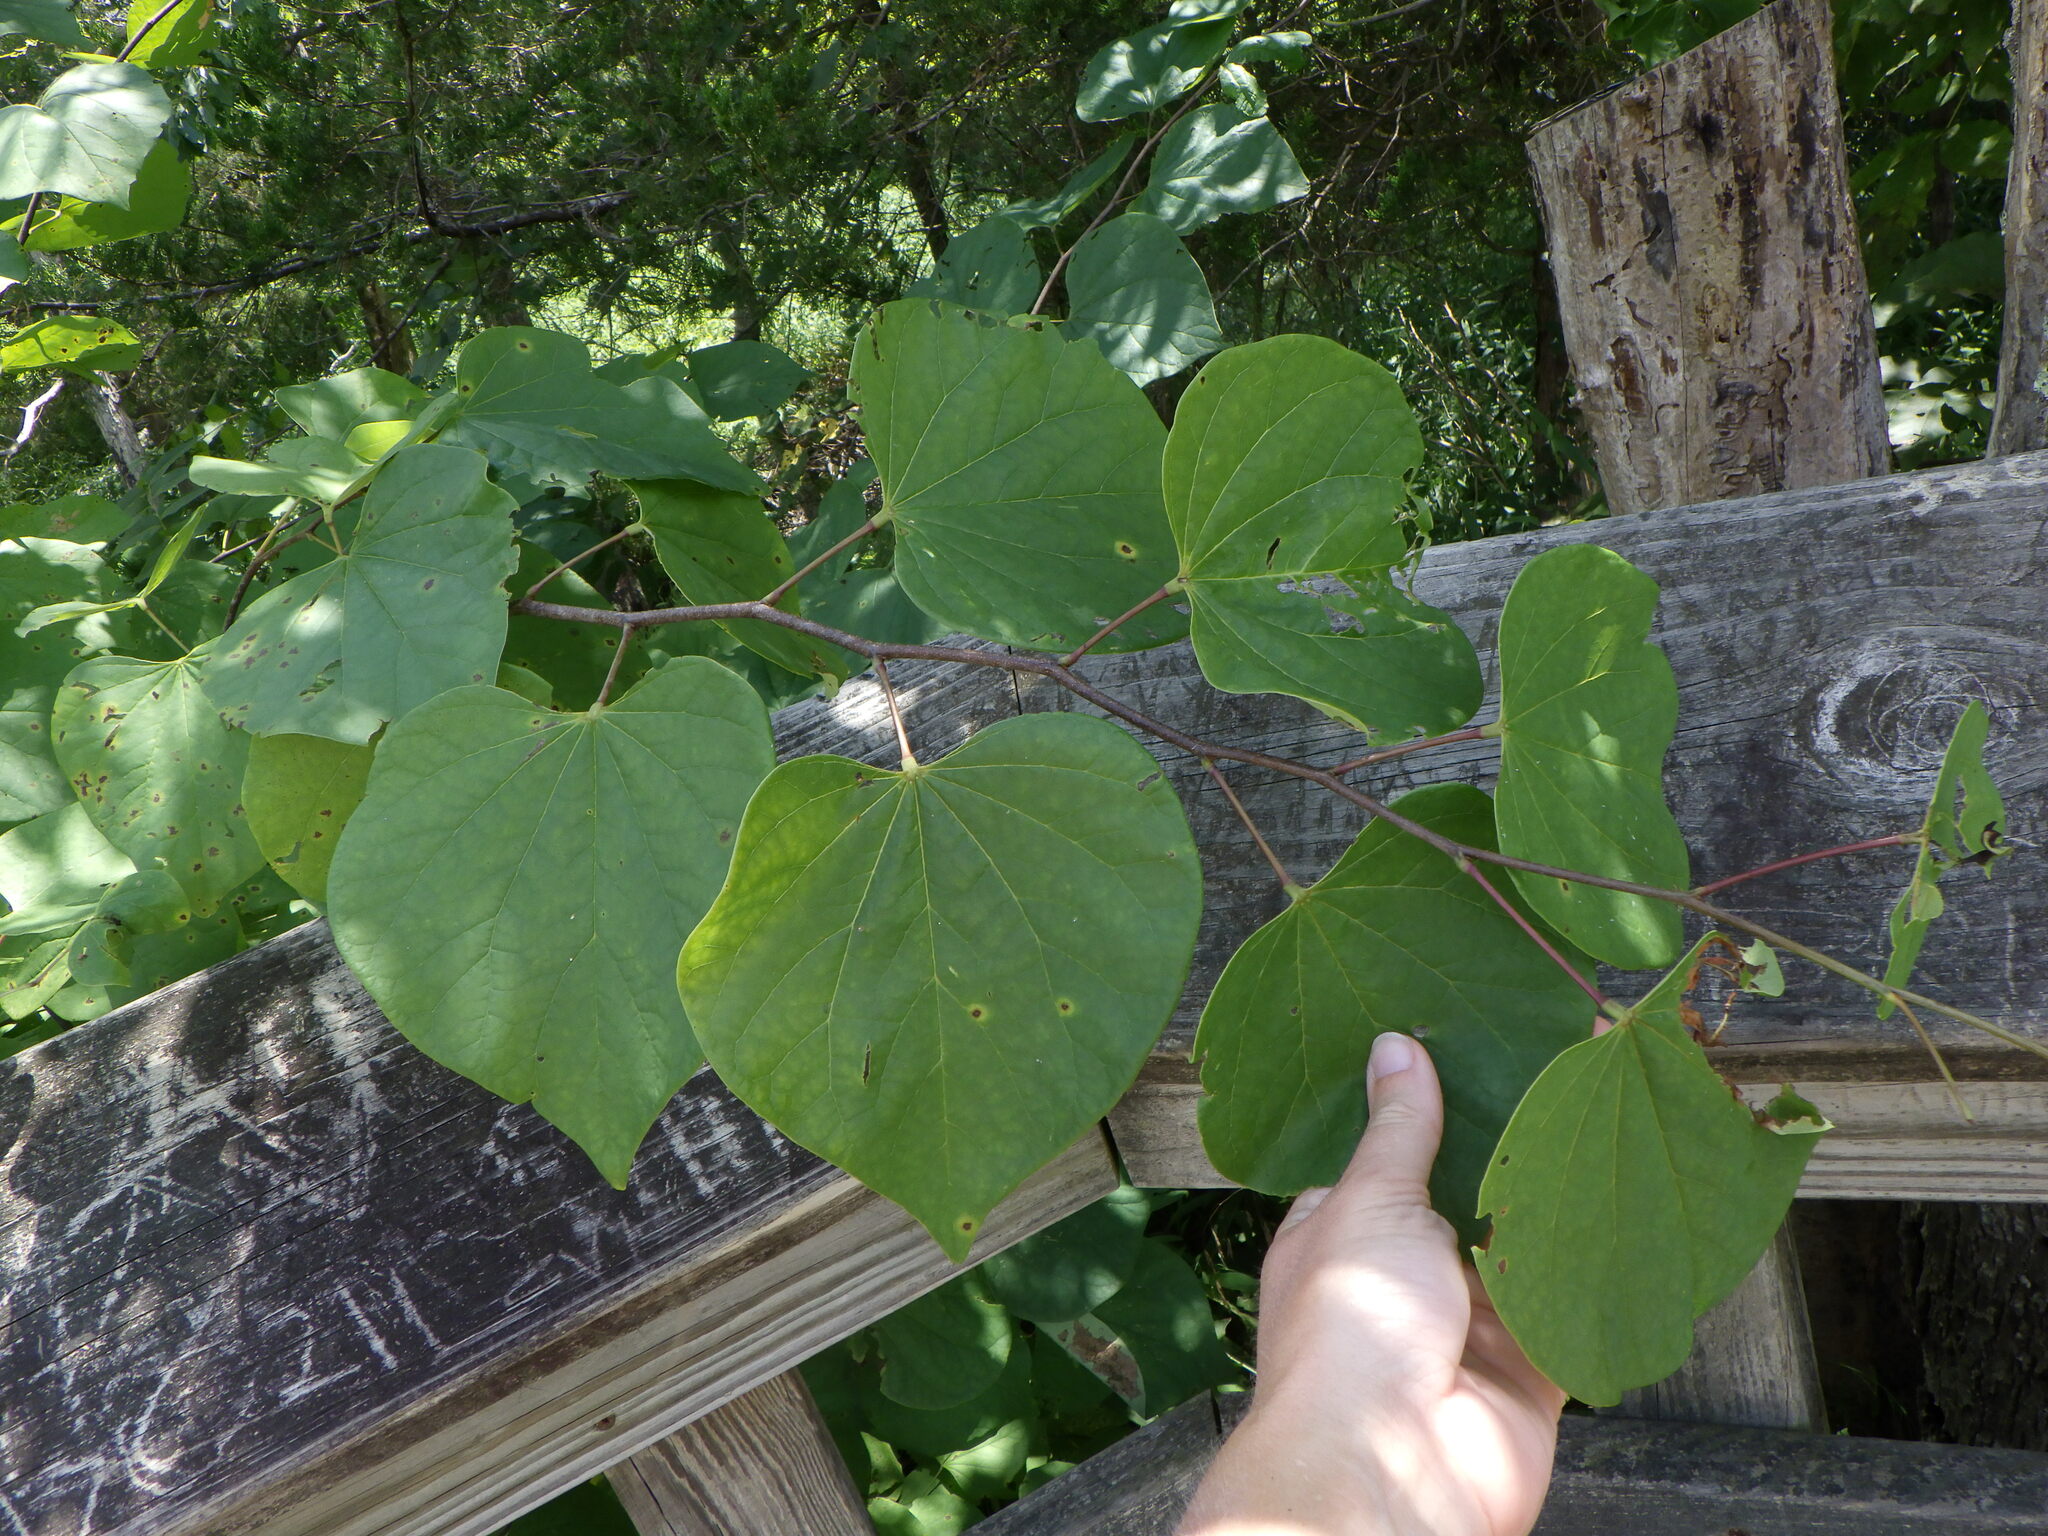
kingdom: Plantae
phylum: Tracheophyta
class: Magnoliopsida
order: Fabales
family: Fabaceae
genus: Cercis
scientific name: Cercis canadensis
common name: Eastern redbud
